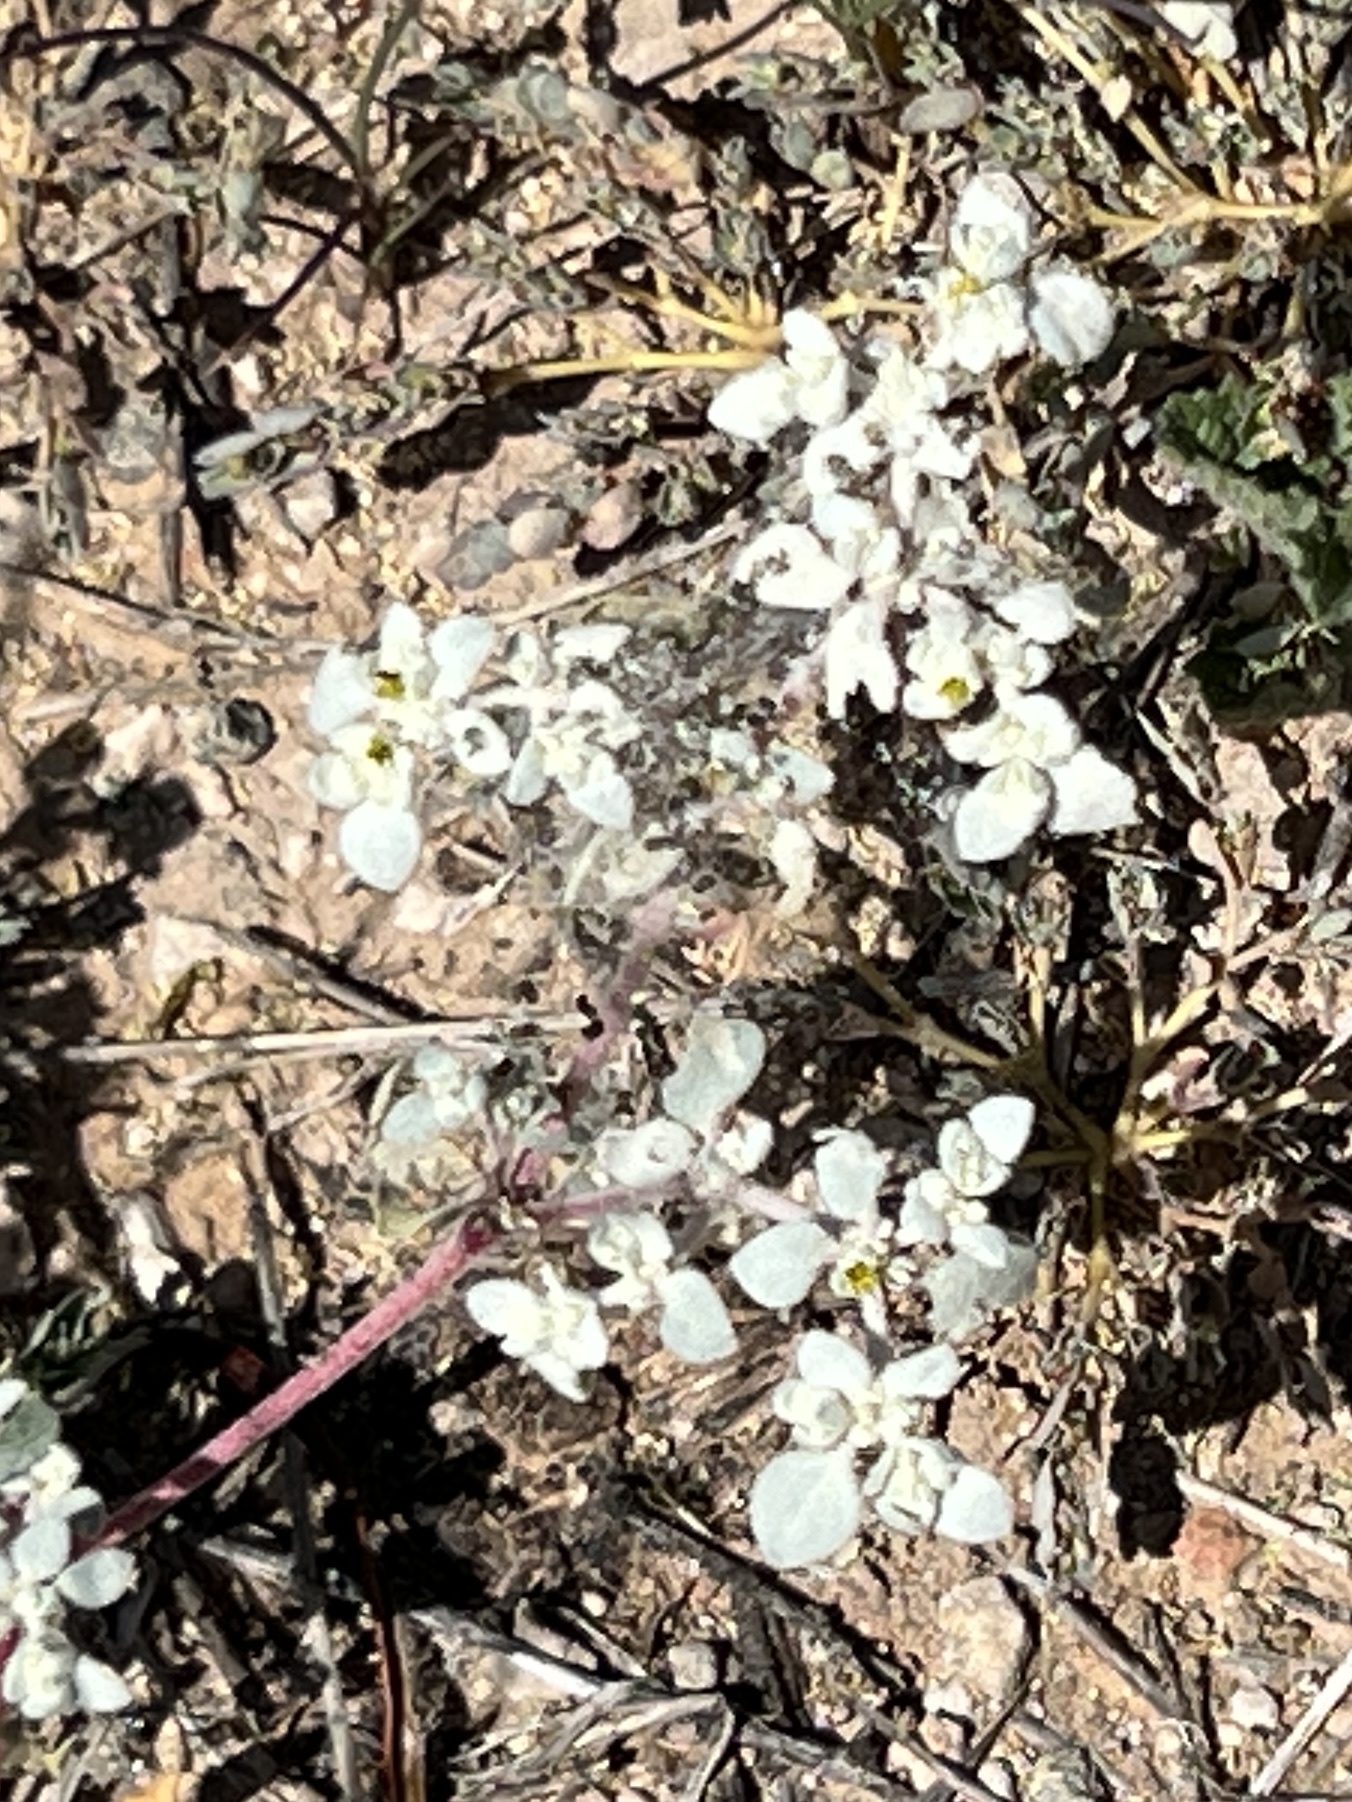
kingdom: Plantae
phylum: Tracheophyta
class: Magnoliopsida
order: Caryophyllales
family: Amaranthaceae
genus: Tidestromia
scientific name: Tidestromia lanuginosa
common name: Woolly tidestromia
